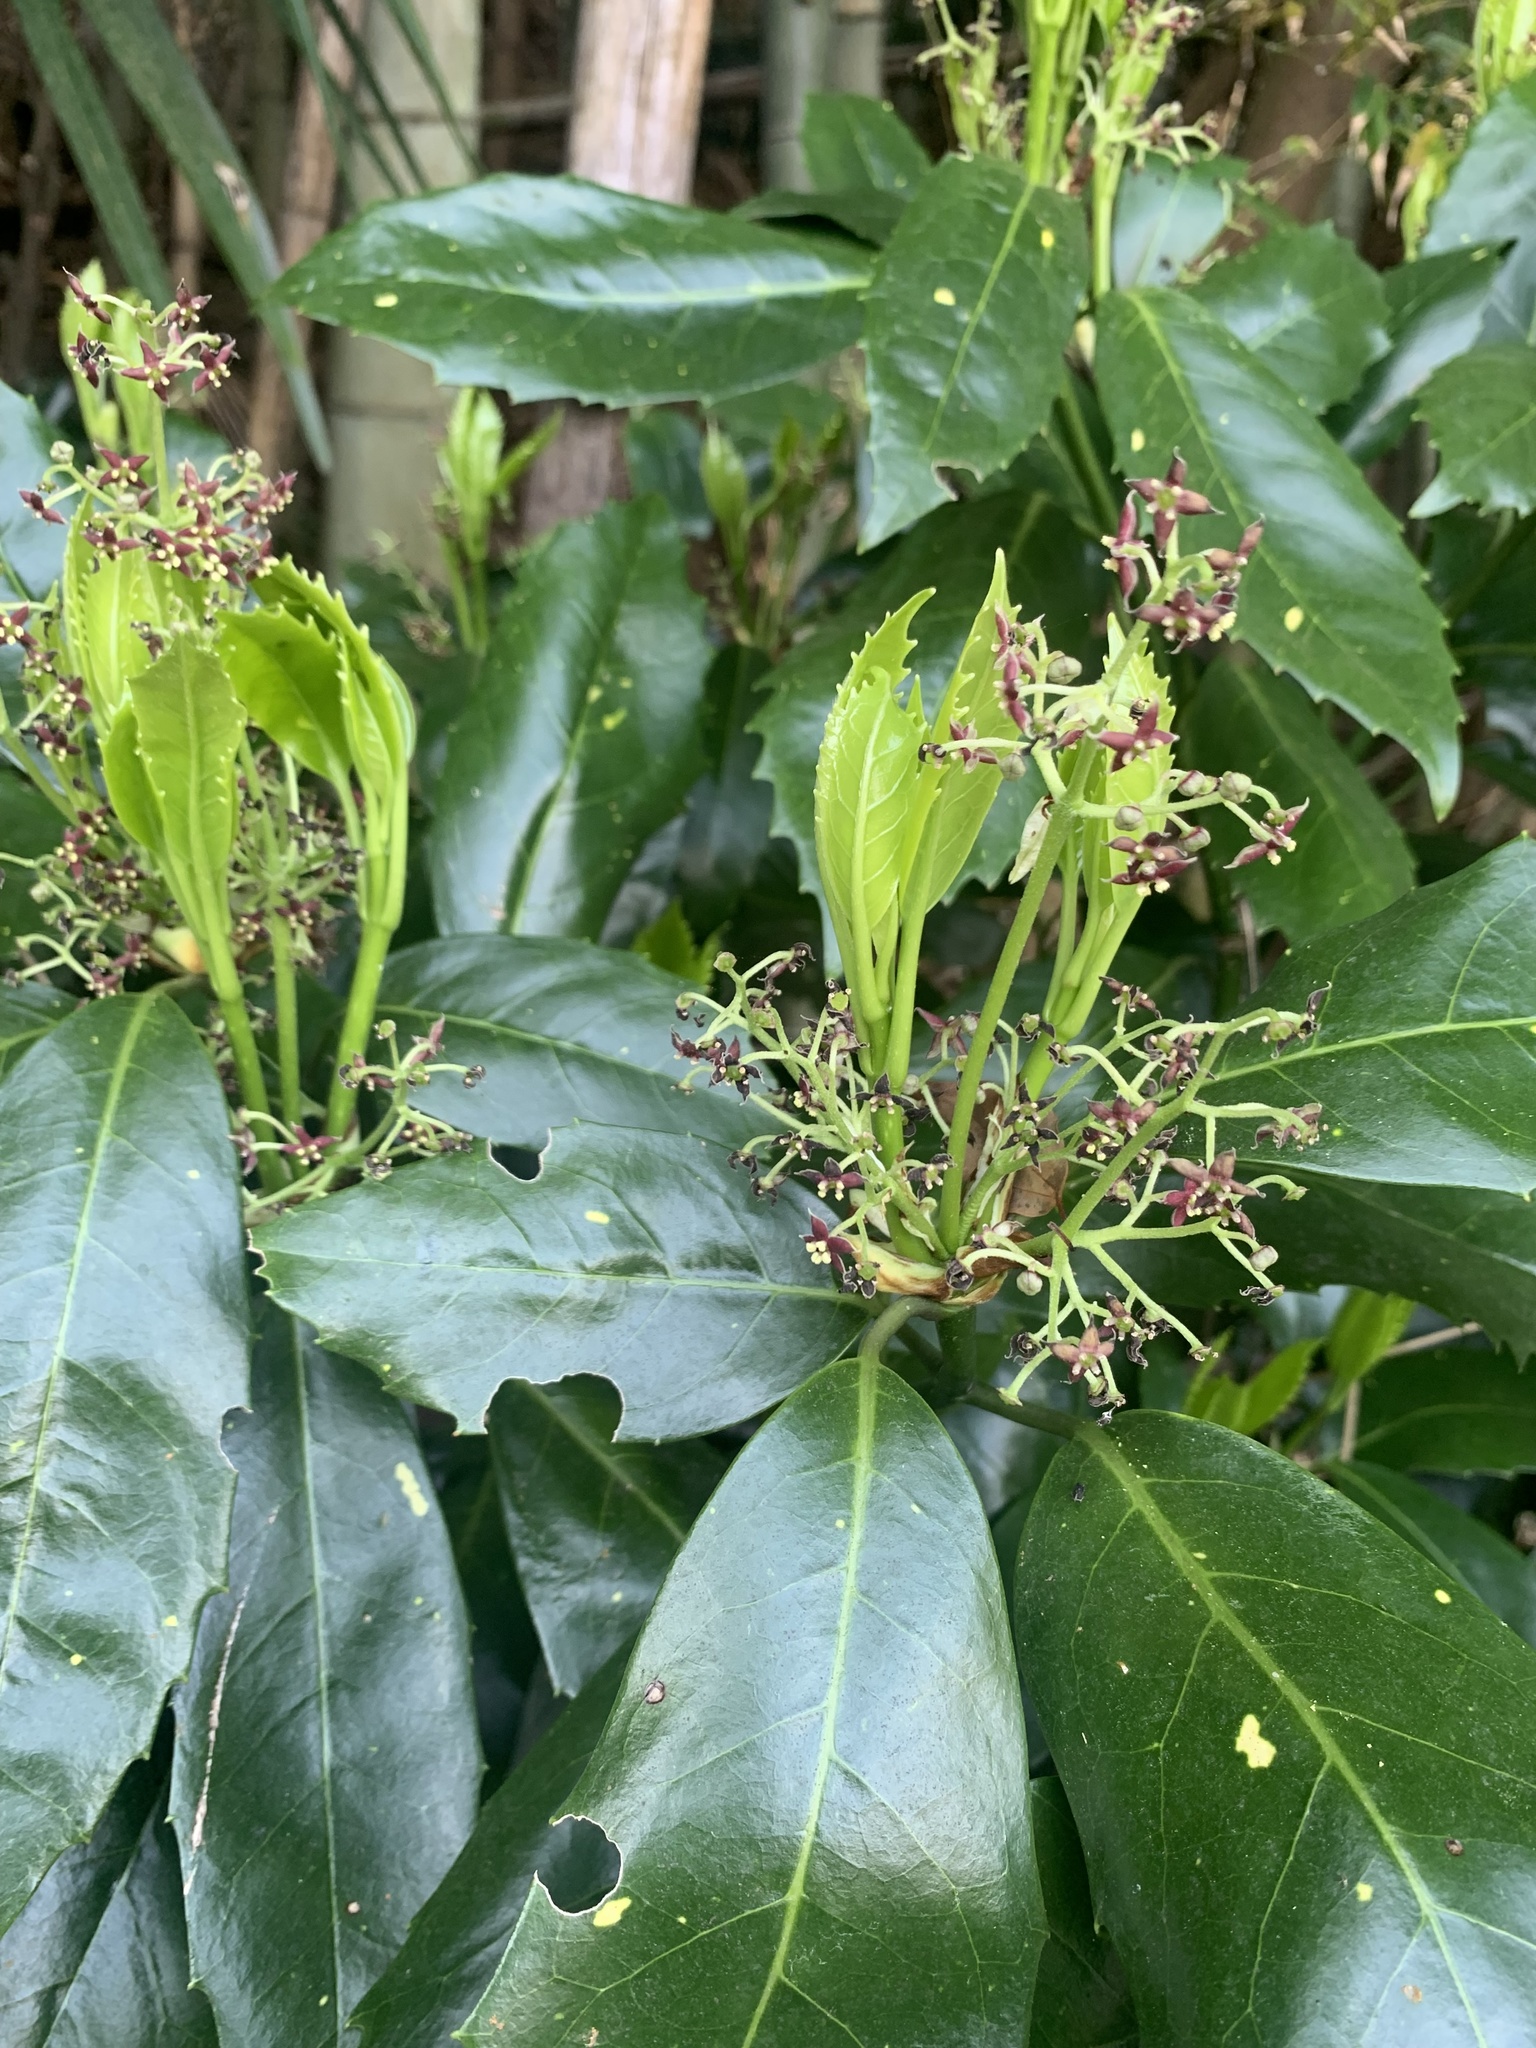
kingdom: Plantae
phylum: Tracheophyta
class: Magnoliopsida
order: Garryales
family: Garryaceae
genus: Aucuba
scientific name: Aucuba japonica
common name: Spotted-laurel
